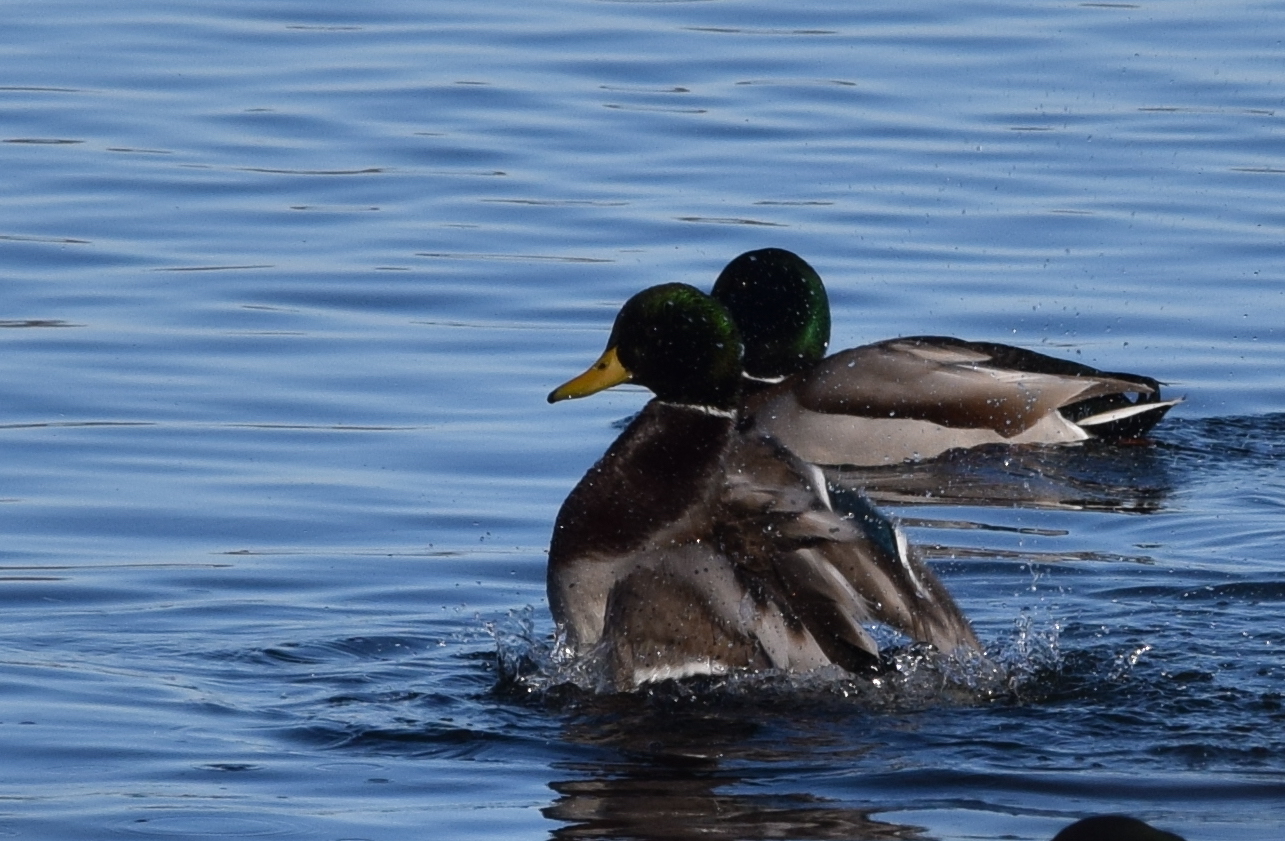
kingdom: Animalia
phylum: Chordata
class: Aves
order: Anseriformes
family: Anatidae
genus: Anas
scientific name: Anas platyrhynchos
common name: Mallard
